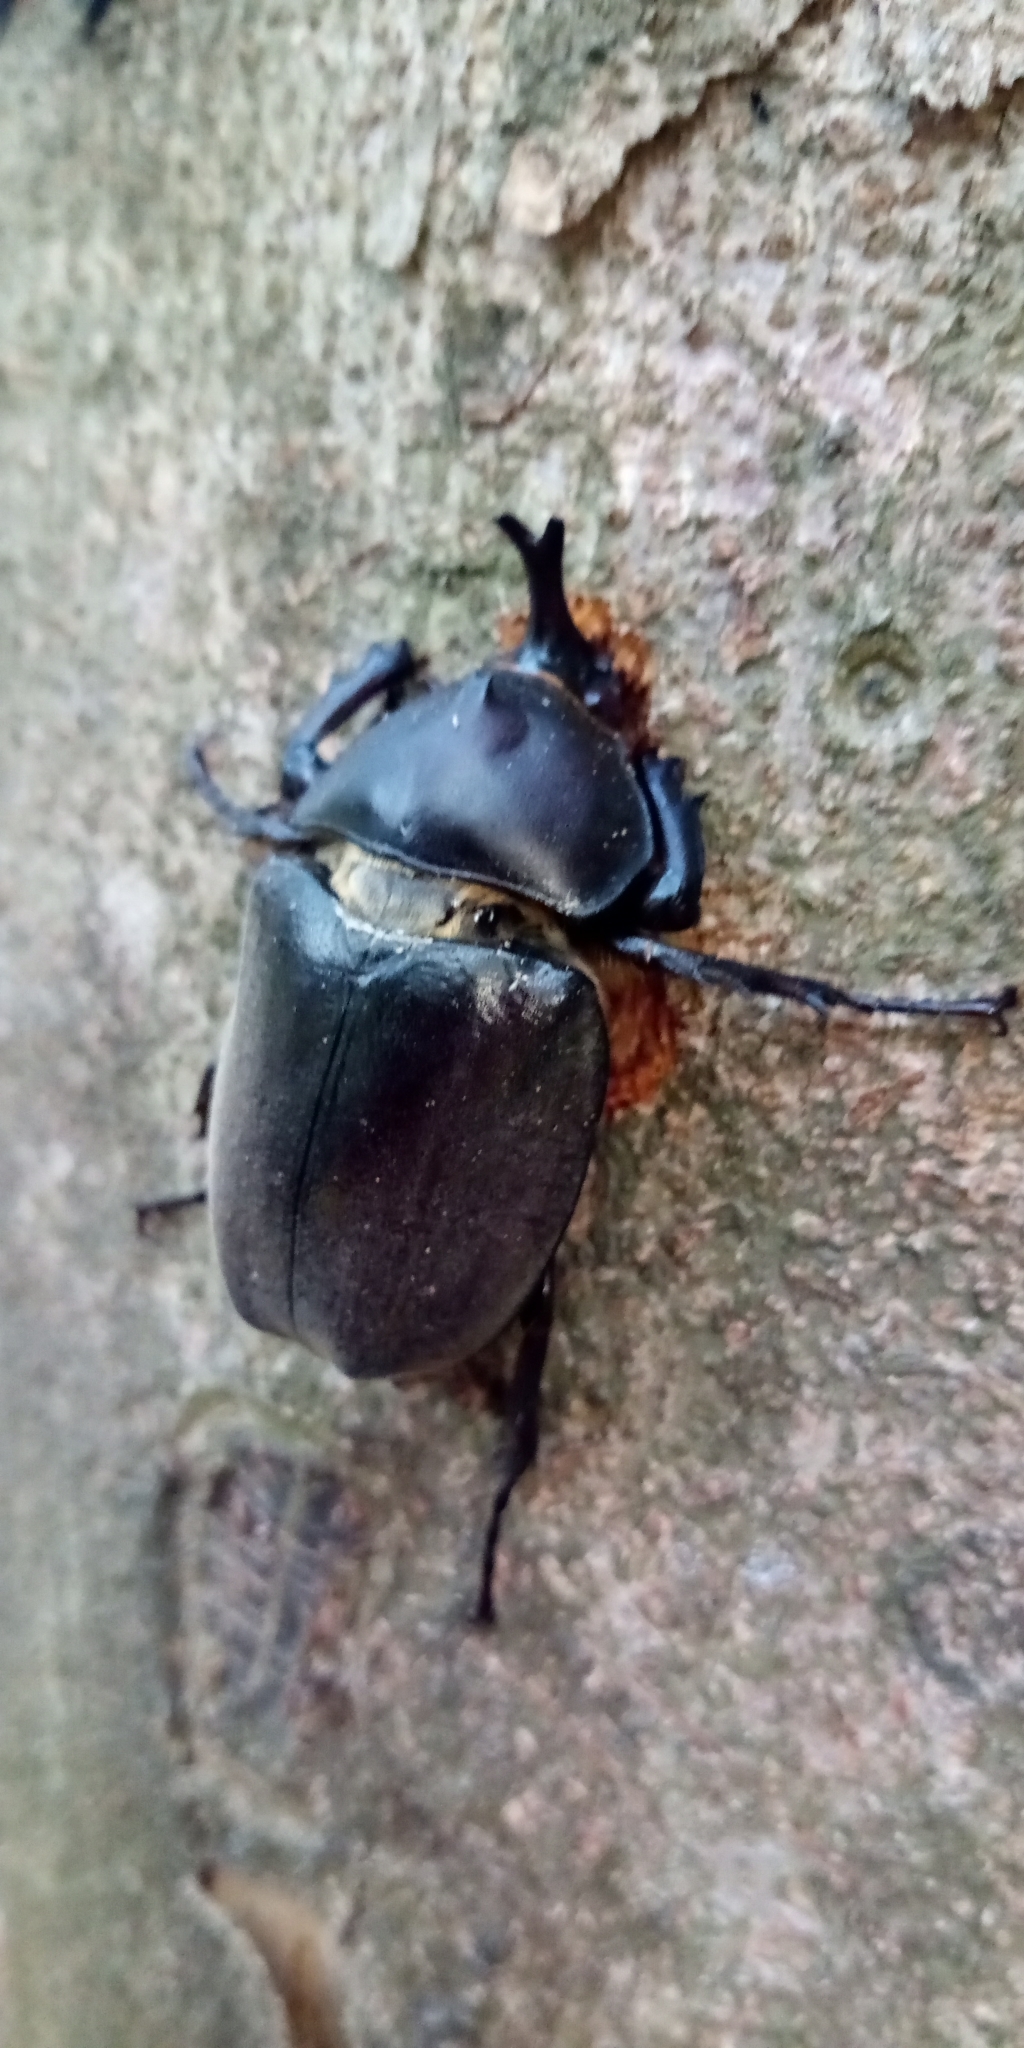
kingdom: Animalia
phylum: Arthropoda
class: Insecta
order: Coleoptera
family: Scarabaeidae
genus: Trypoxylus
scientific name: Trypoxylus dichotomus
